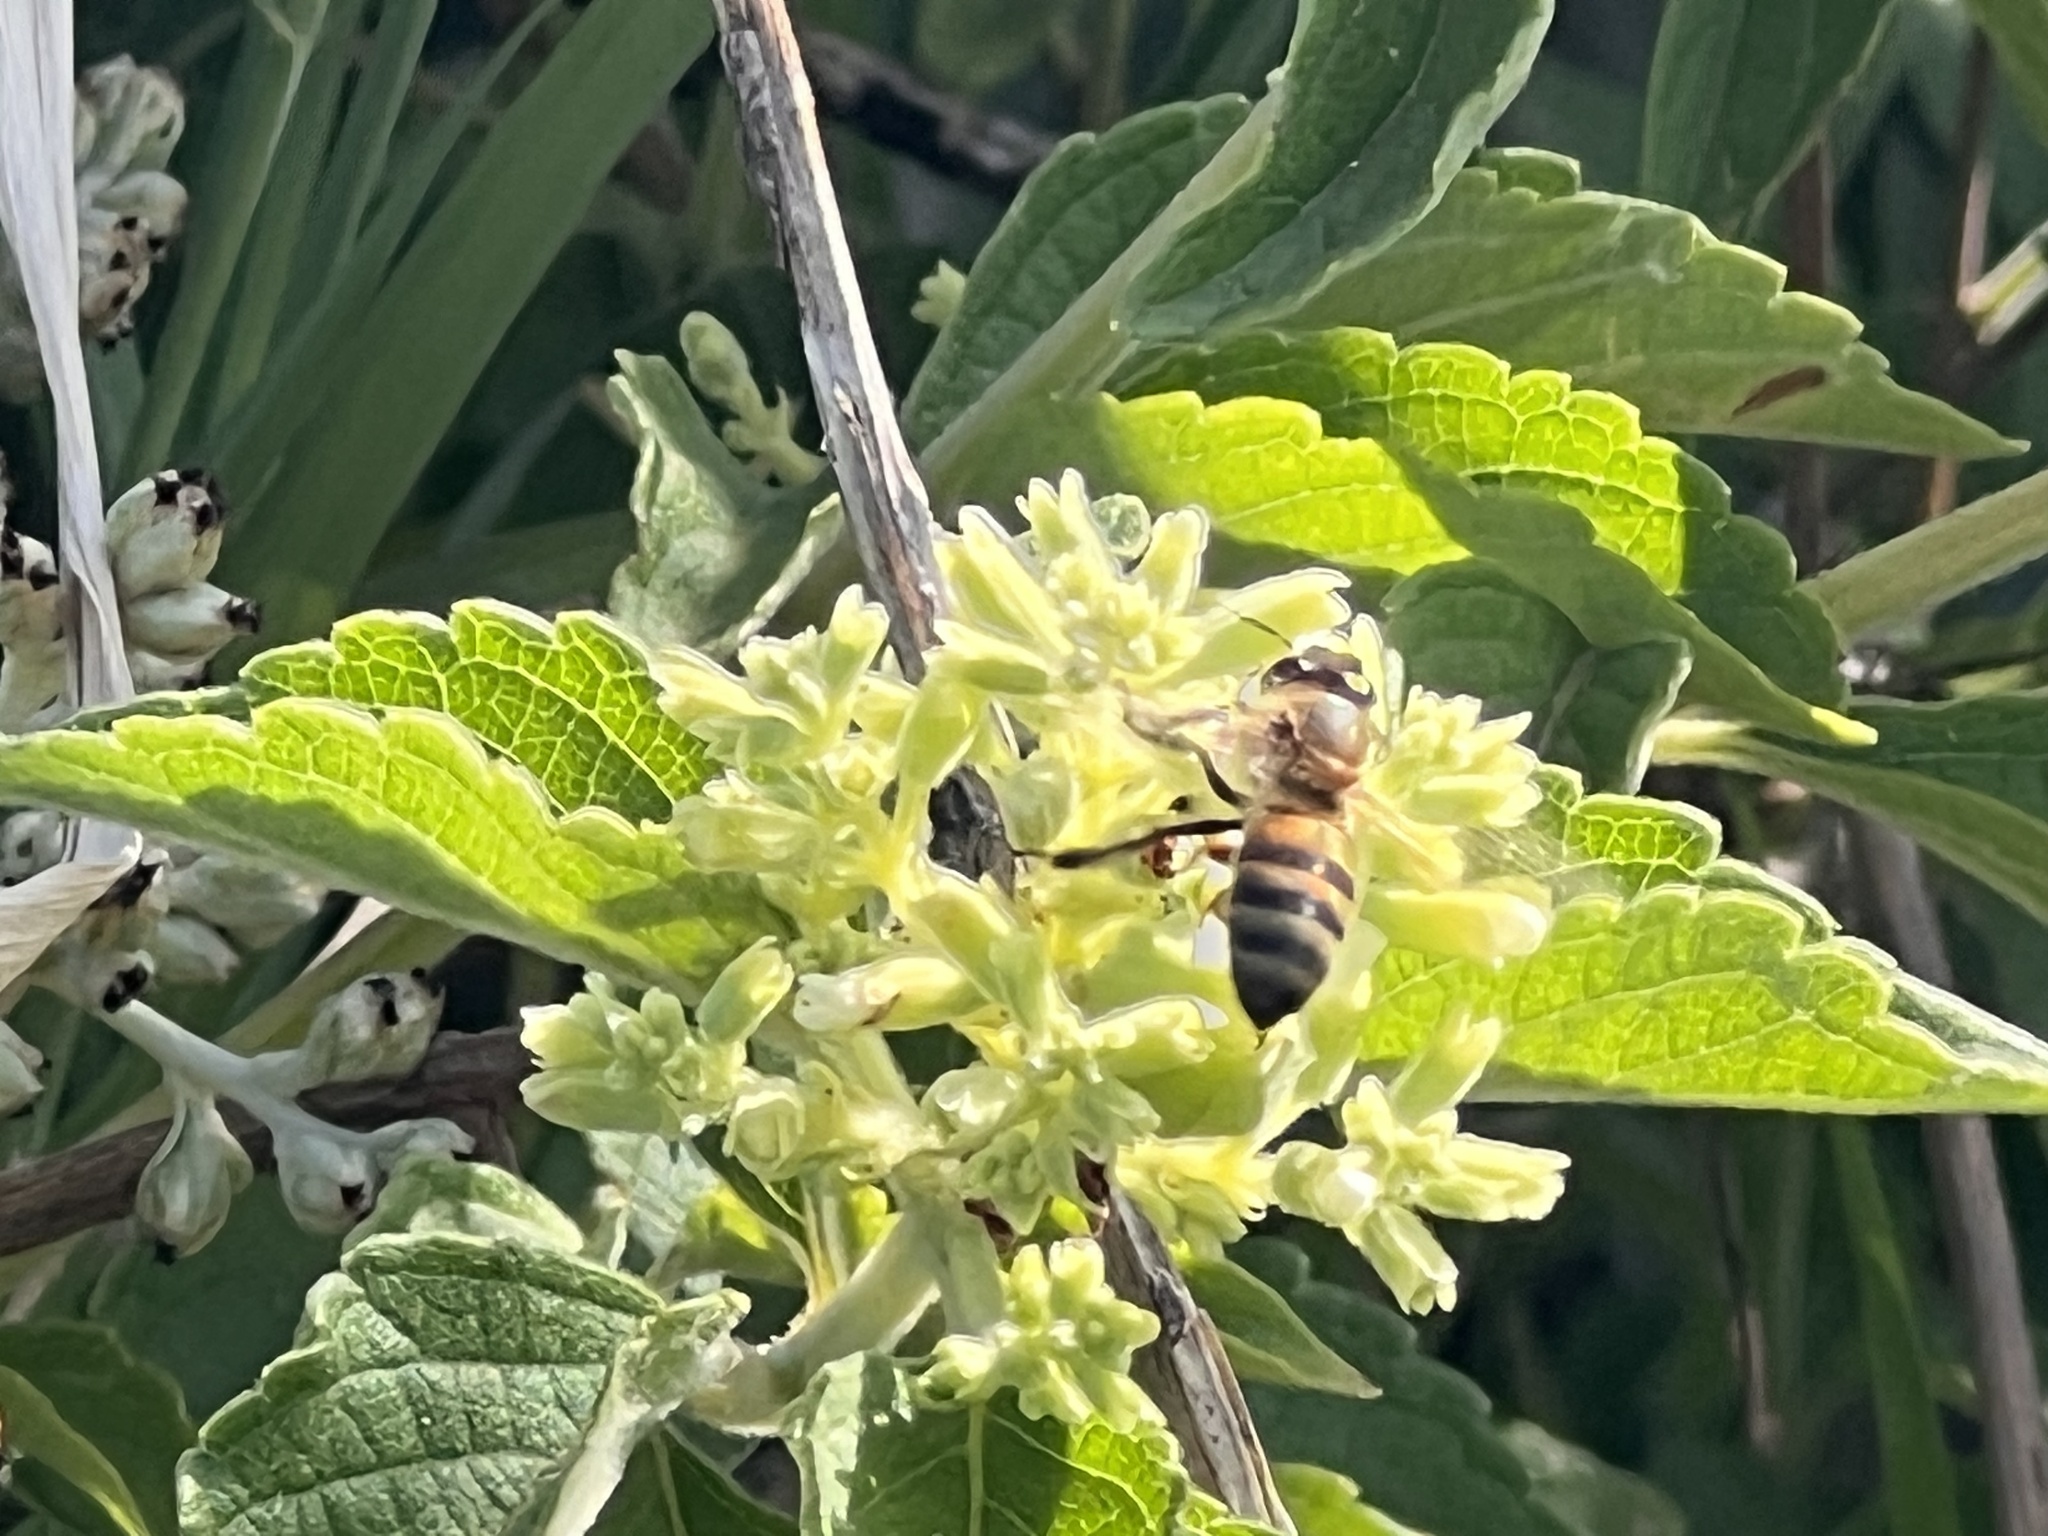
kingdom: Animalia
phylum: Arthropoda
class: Insecta
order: Hymenoptera
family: Apidae
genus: Apis
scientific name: Apis mellifera
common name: Honey bee
